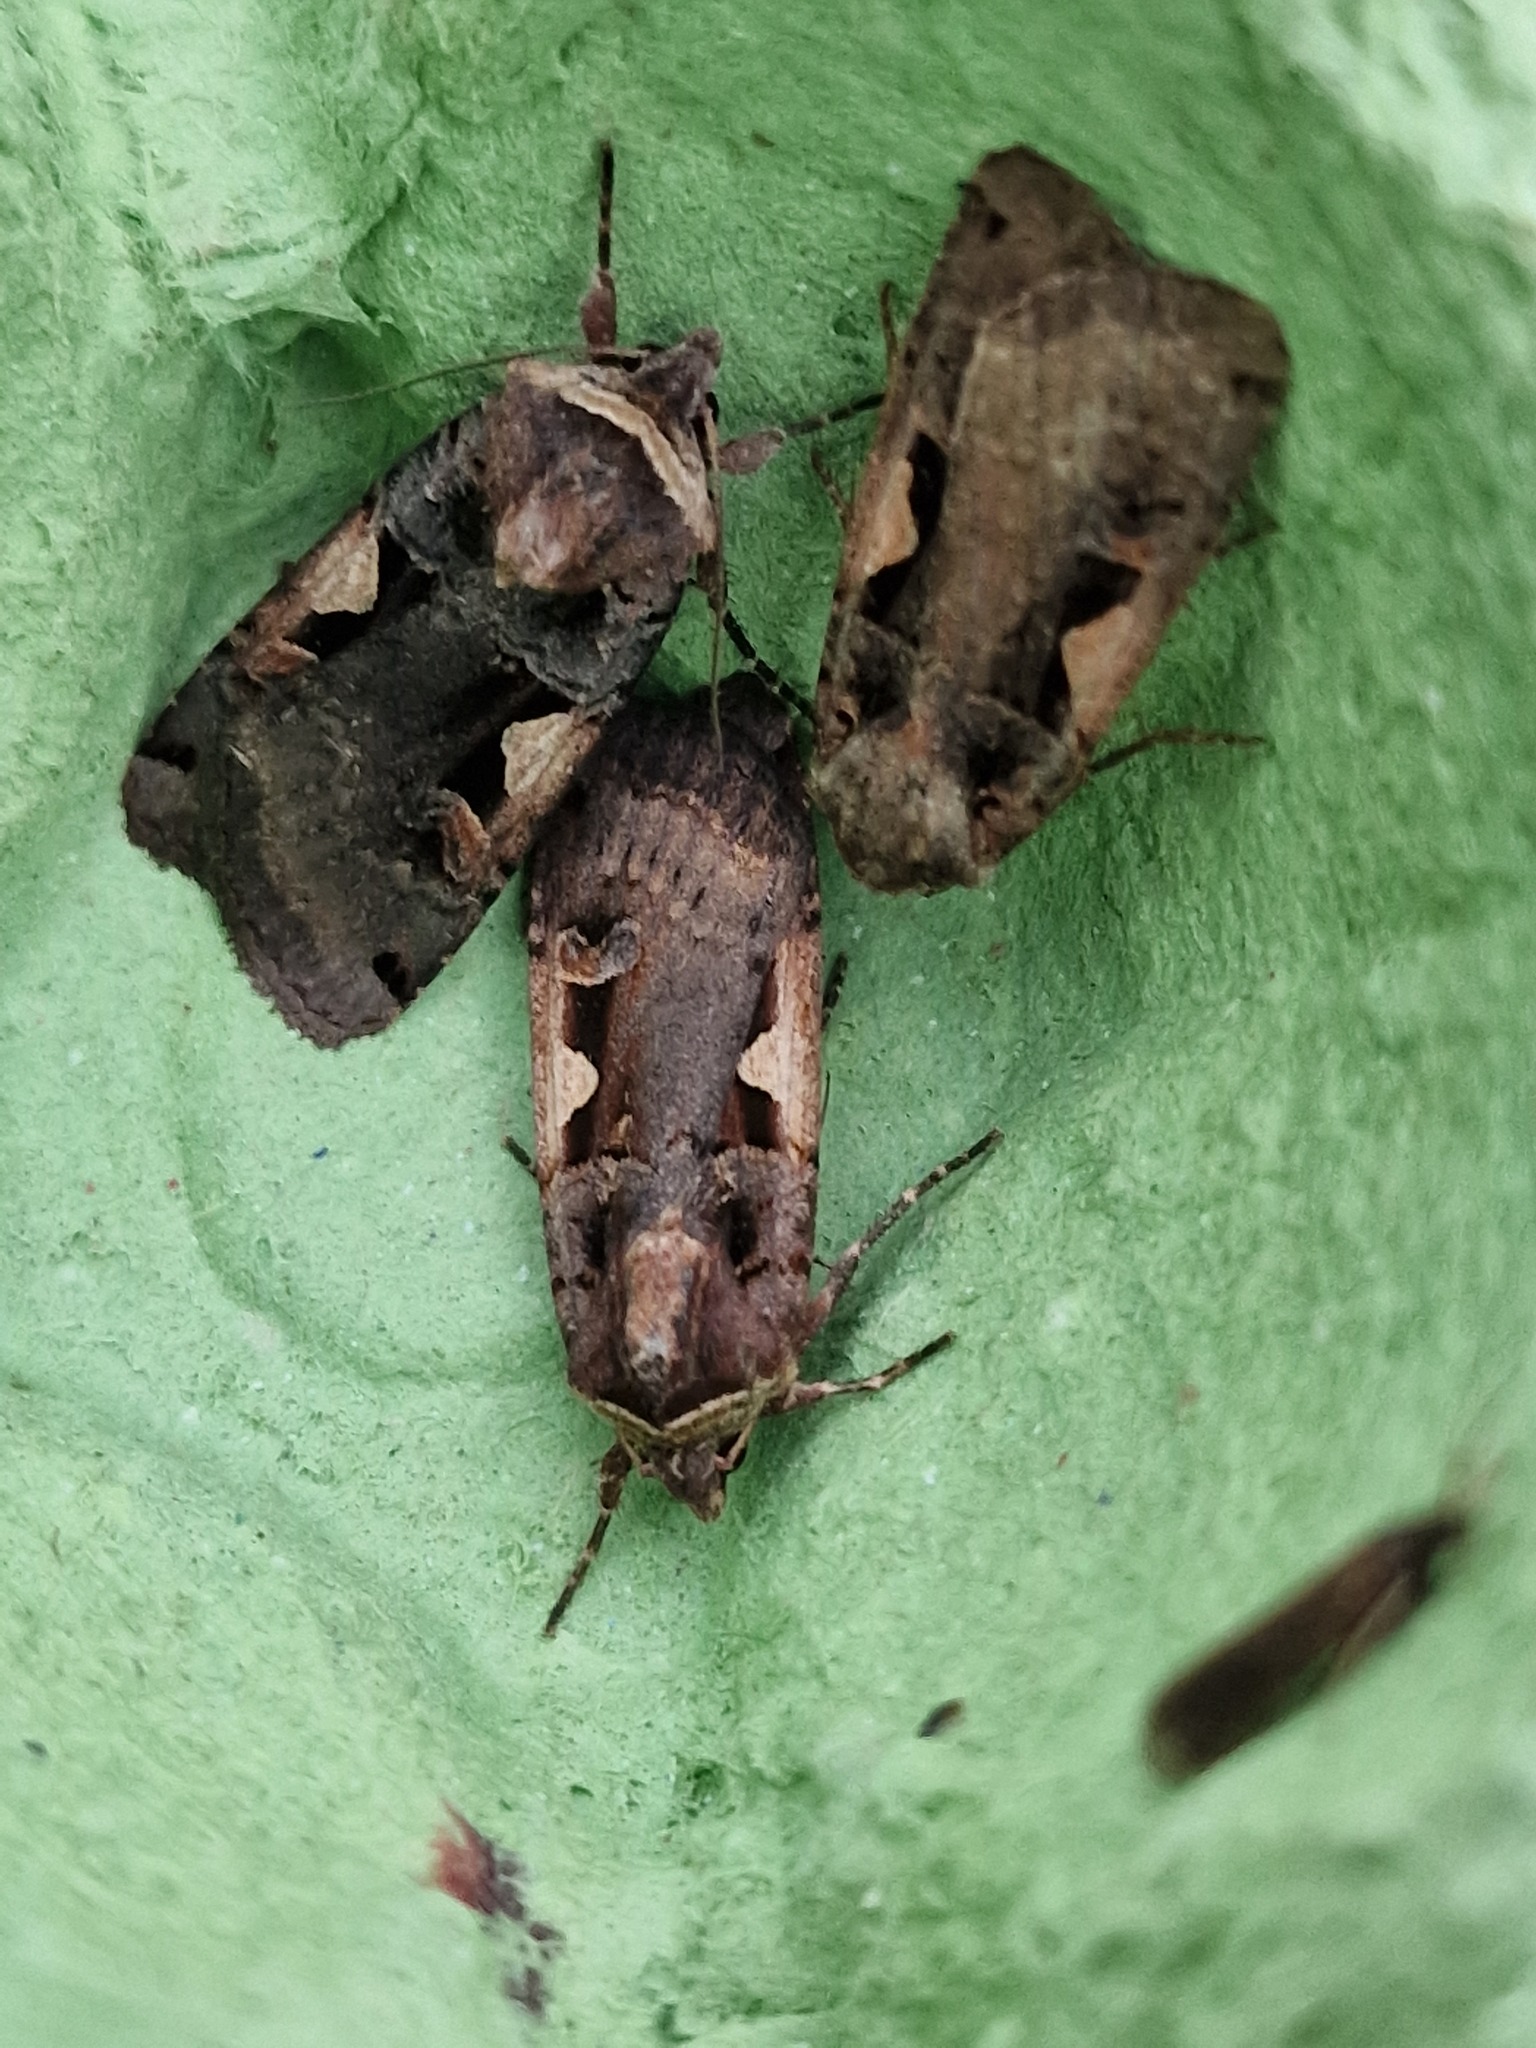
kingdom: Animalia
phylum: Arthropoda
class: Insecta
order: Lepidoptera
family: Noctuidae
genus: Xestia
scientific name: Xestia c-nigrum
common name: Setaceous hebrew character
